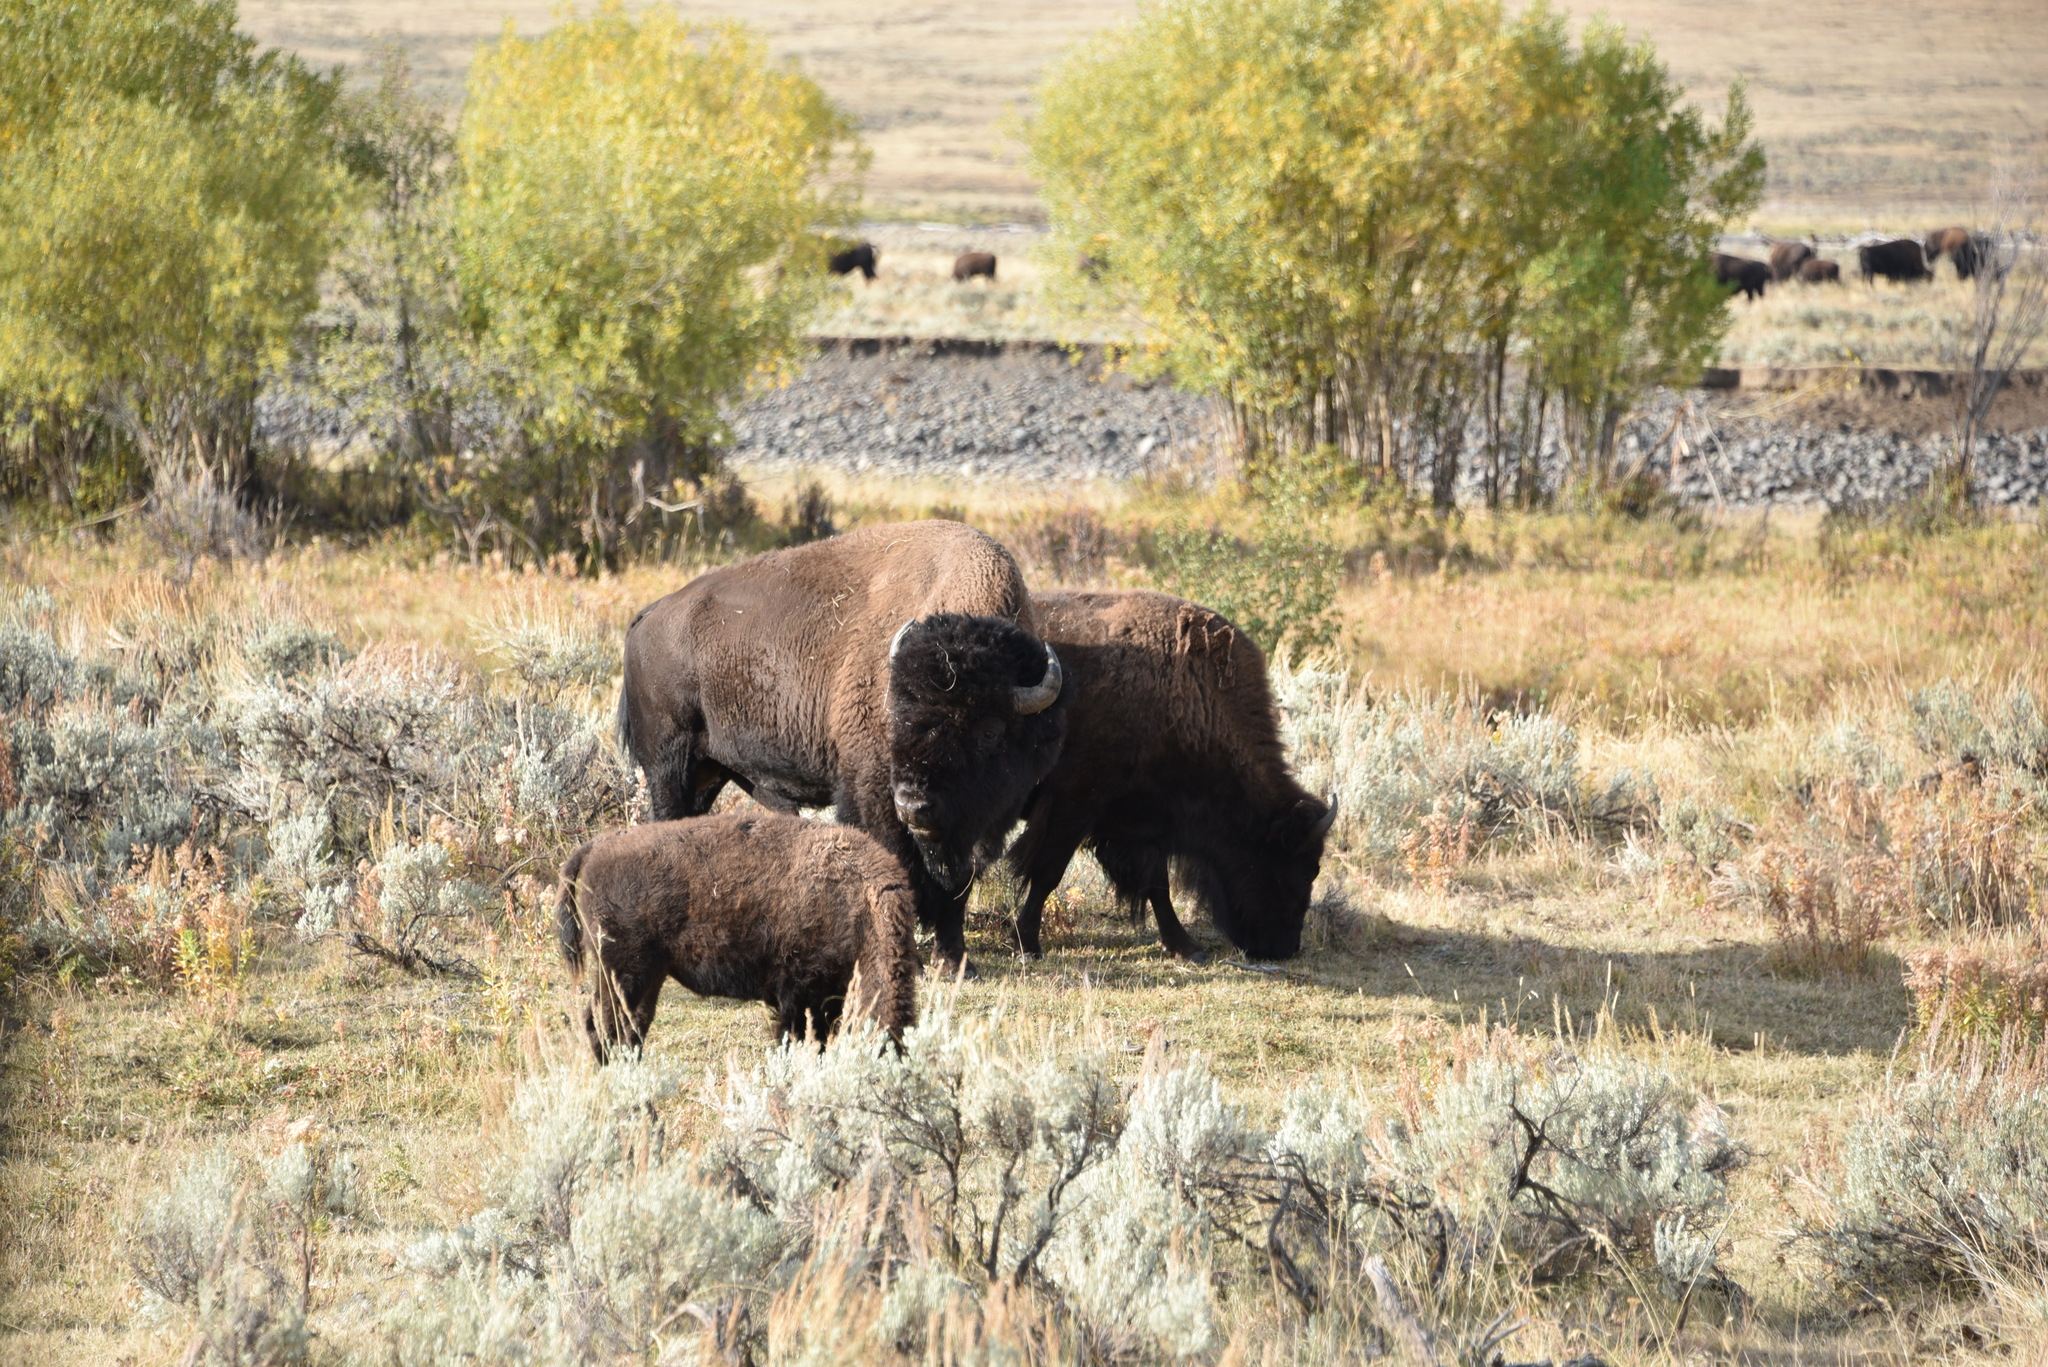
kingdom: Animalia
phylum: Chordata
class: Mammalia
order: Artiodactyla
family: Bovidae
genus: Bison
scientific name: Bison bison
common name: American bison
